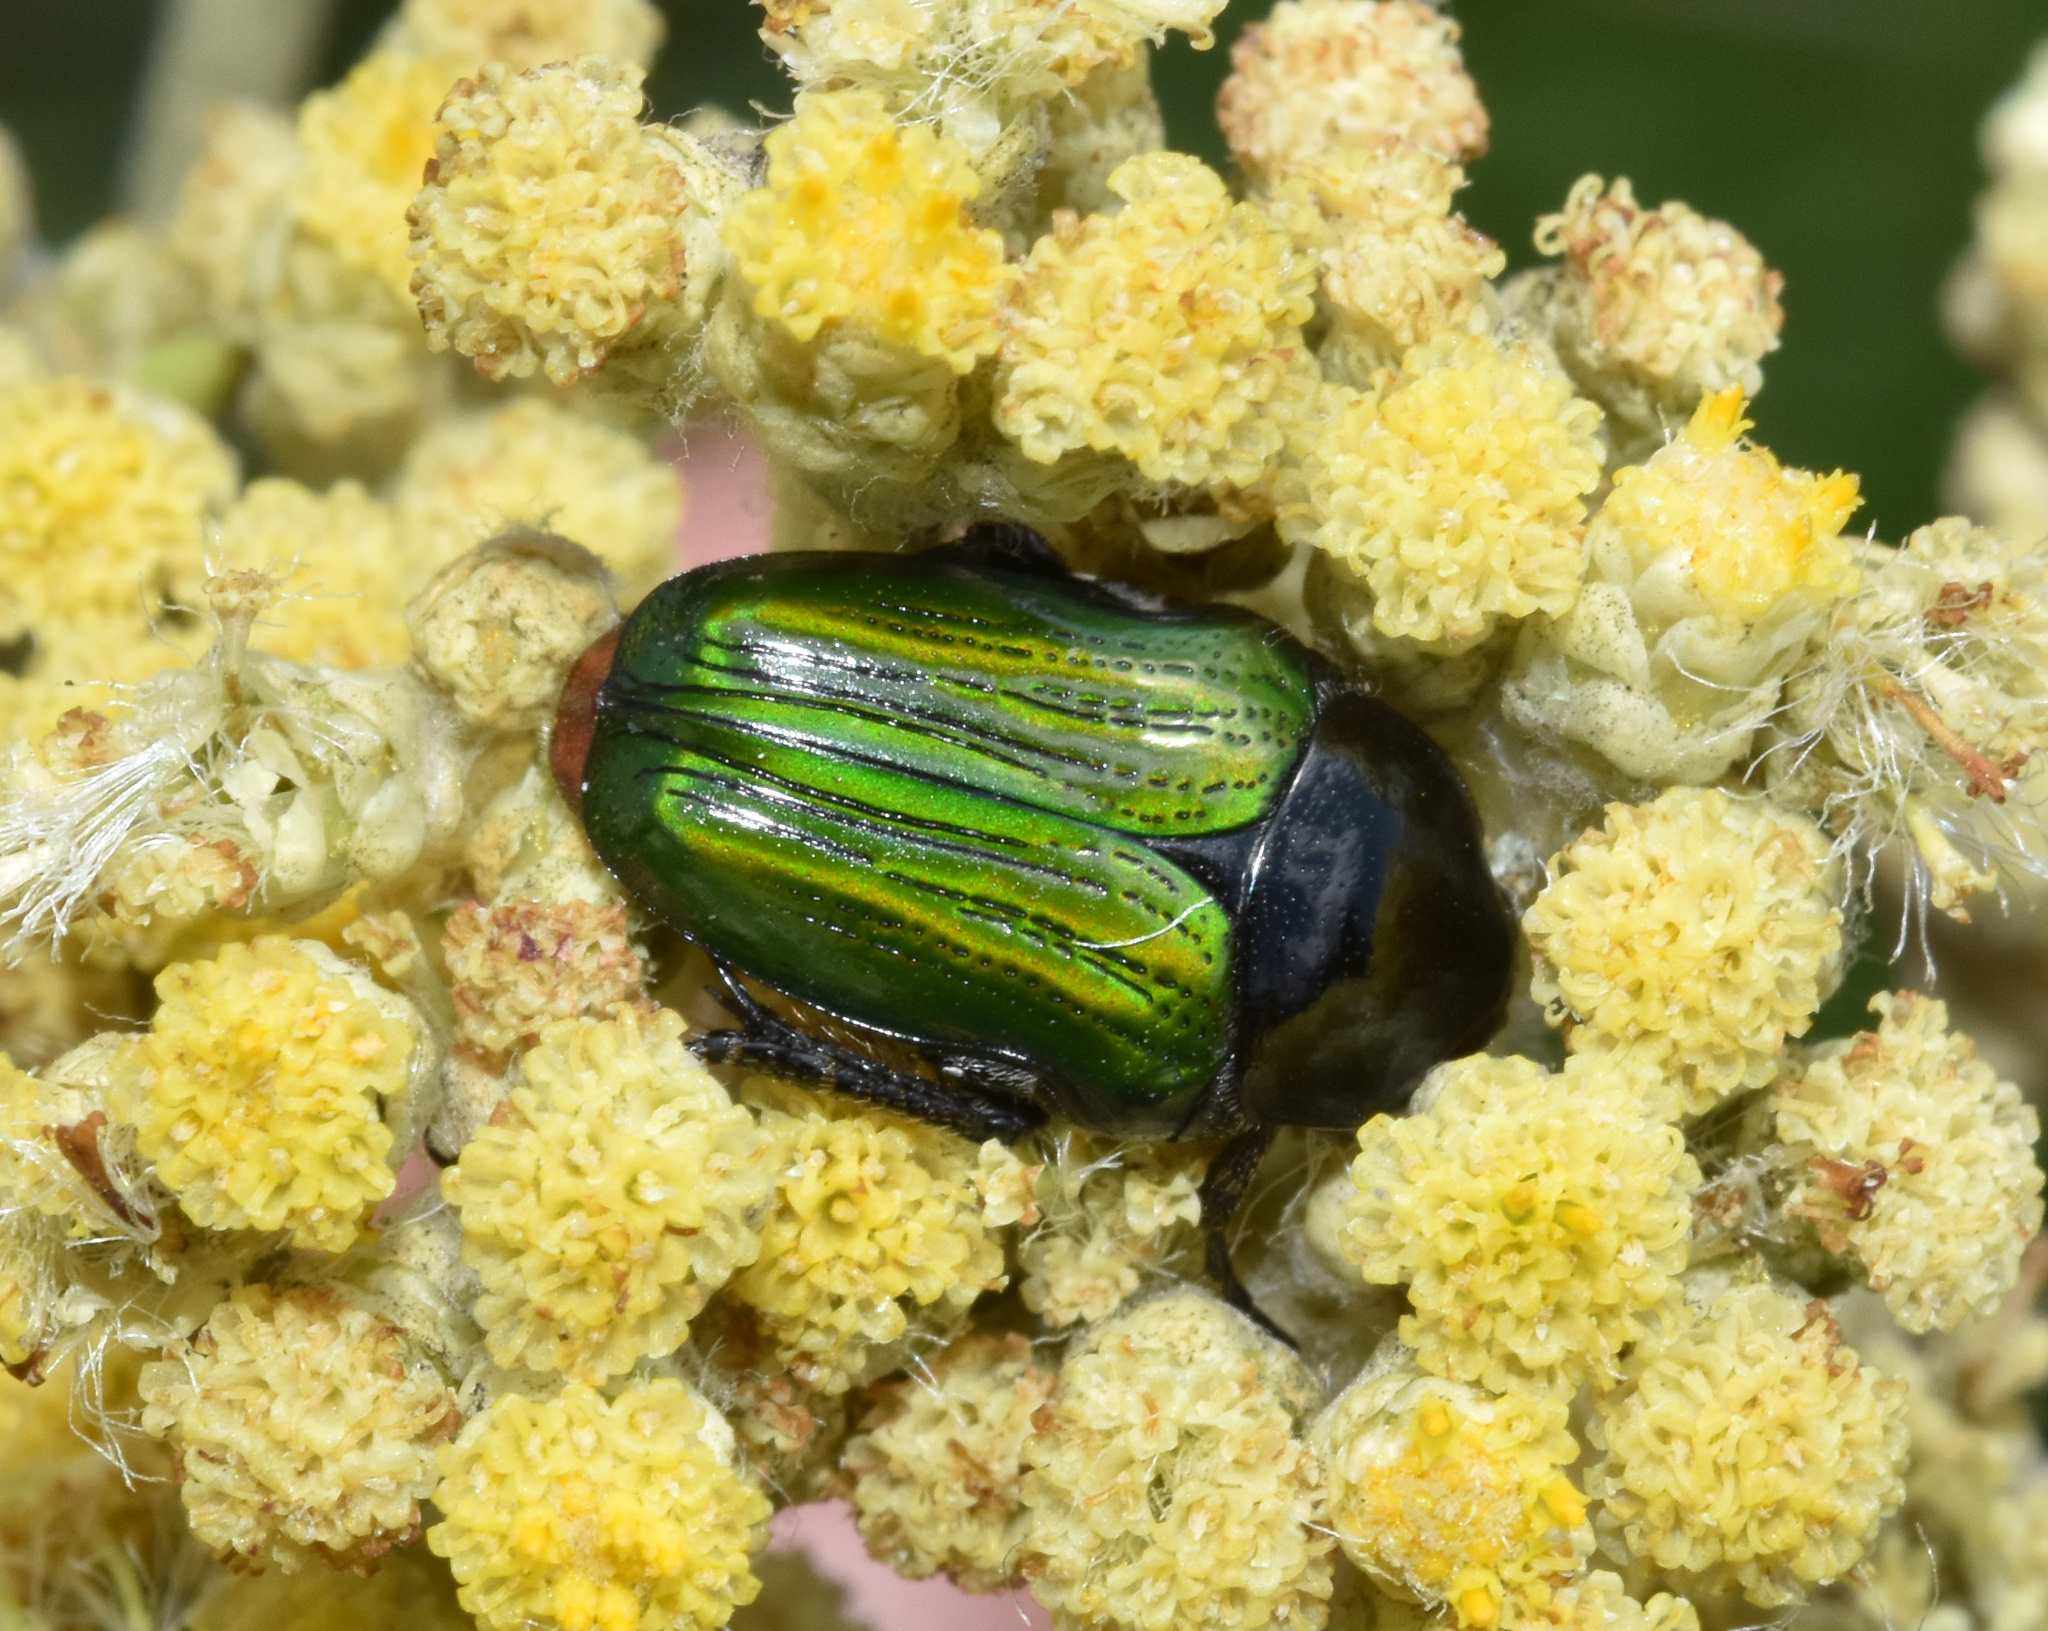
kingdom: Animalia
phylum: Arthropoda
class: Insecta
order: Coleoptera
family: Scarabaeidae
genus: Leucocelis
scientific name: Leucocelis haemorrhoidalis
